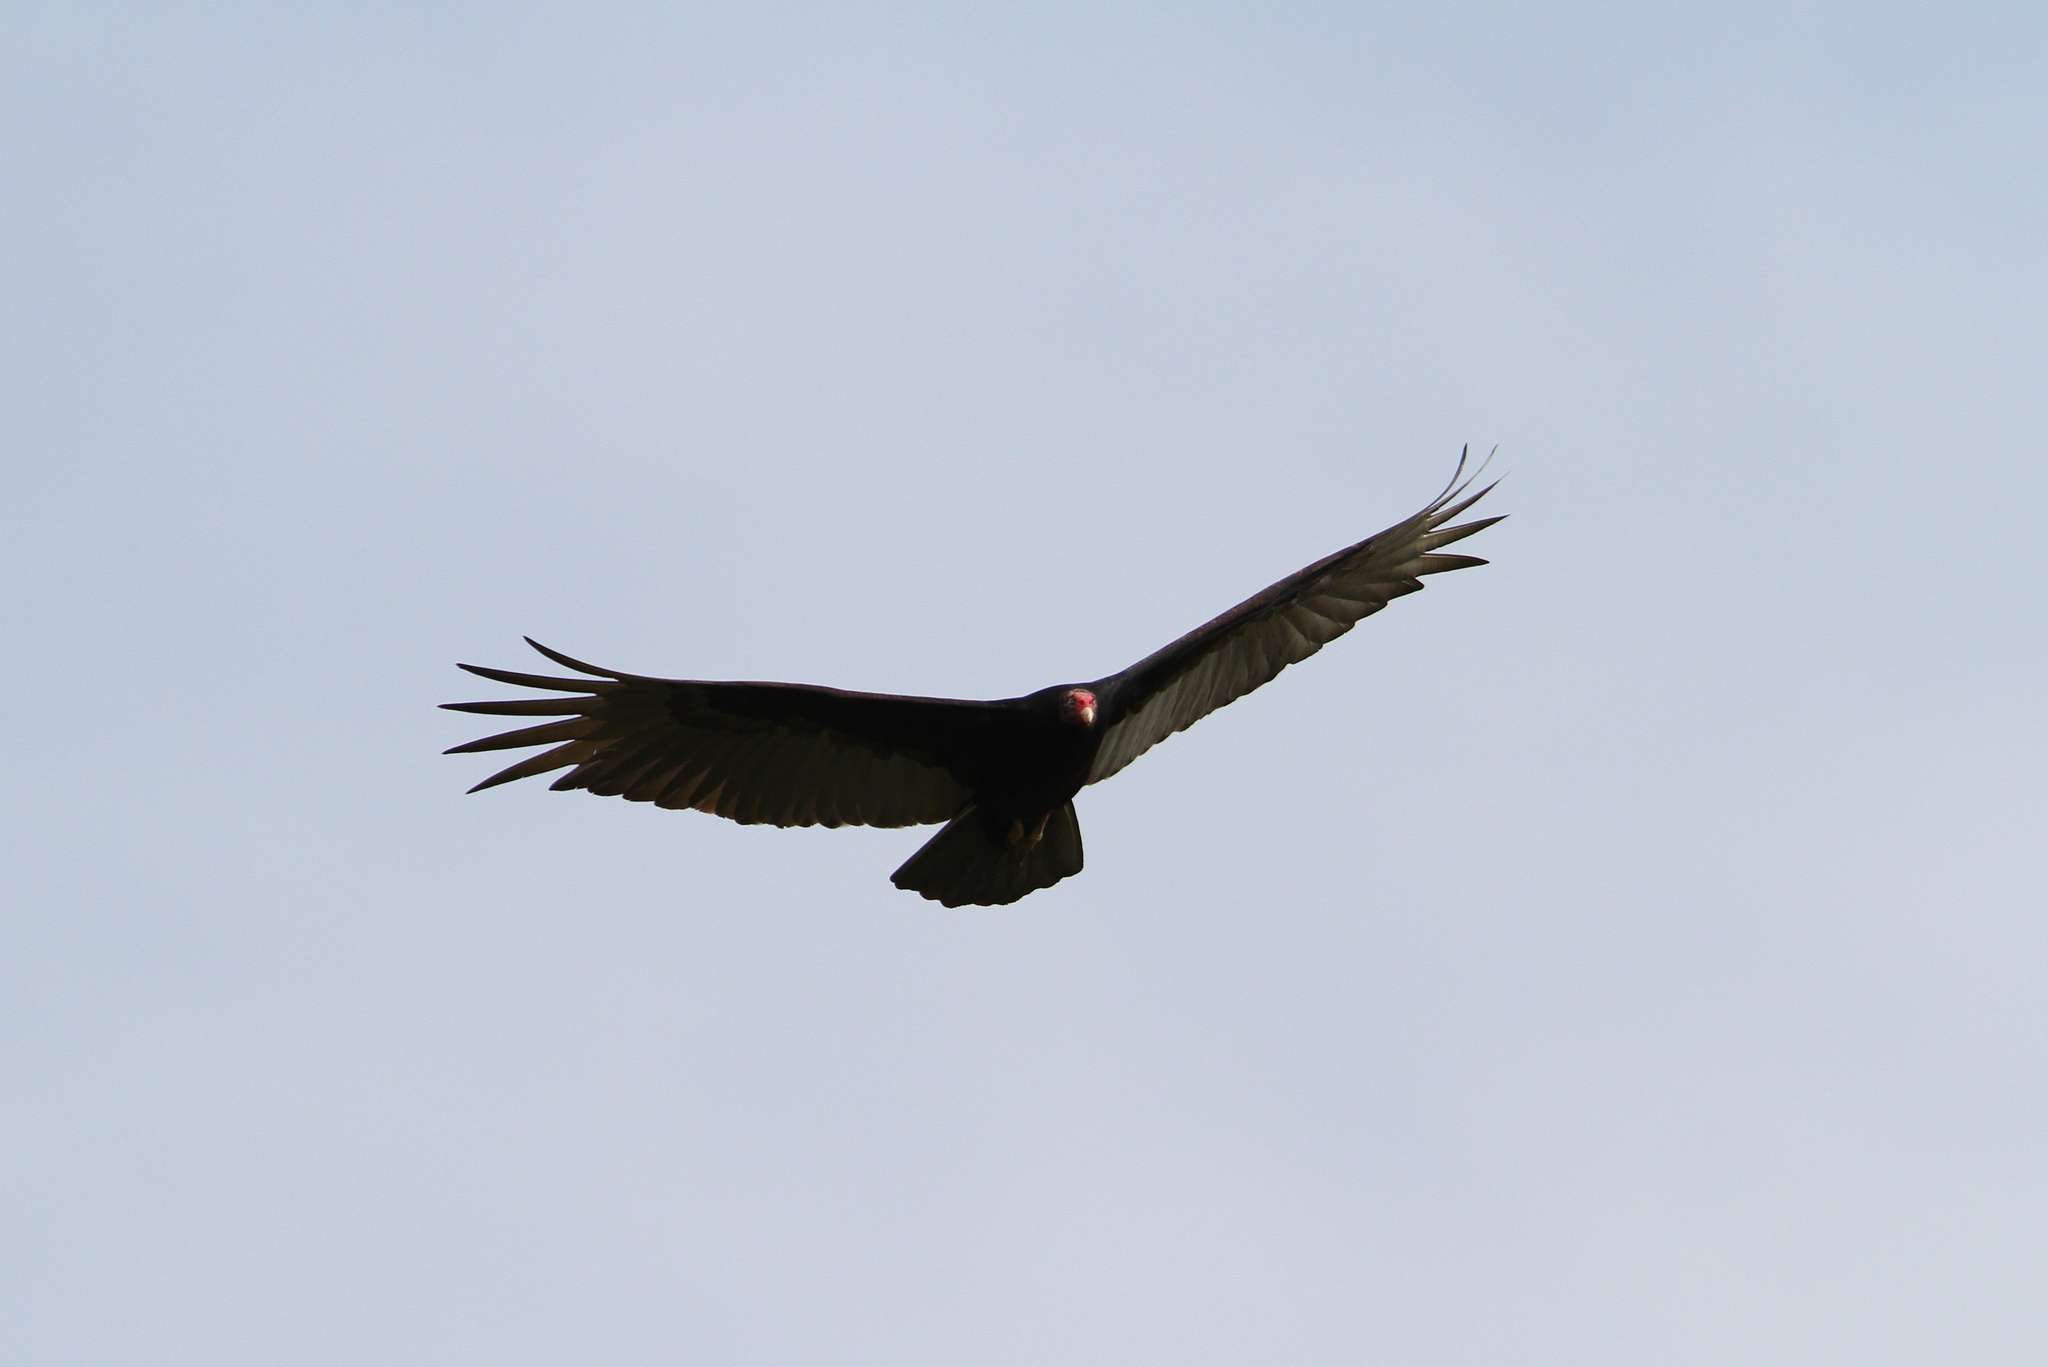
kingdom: Animalia
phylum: Chordata
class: Aves
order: Accipitriformes
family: Cathartidae
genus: Cathartes
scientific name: Cathartes aura
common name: Turkey vulture
